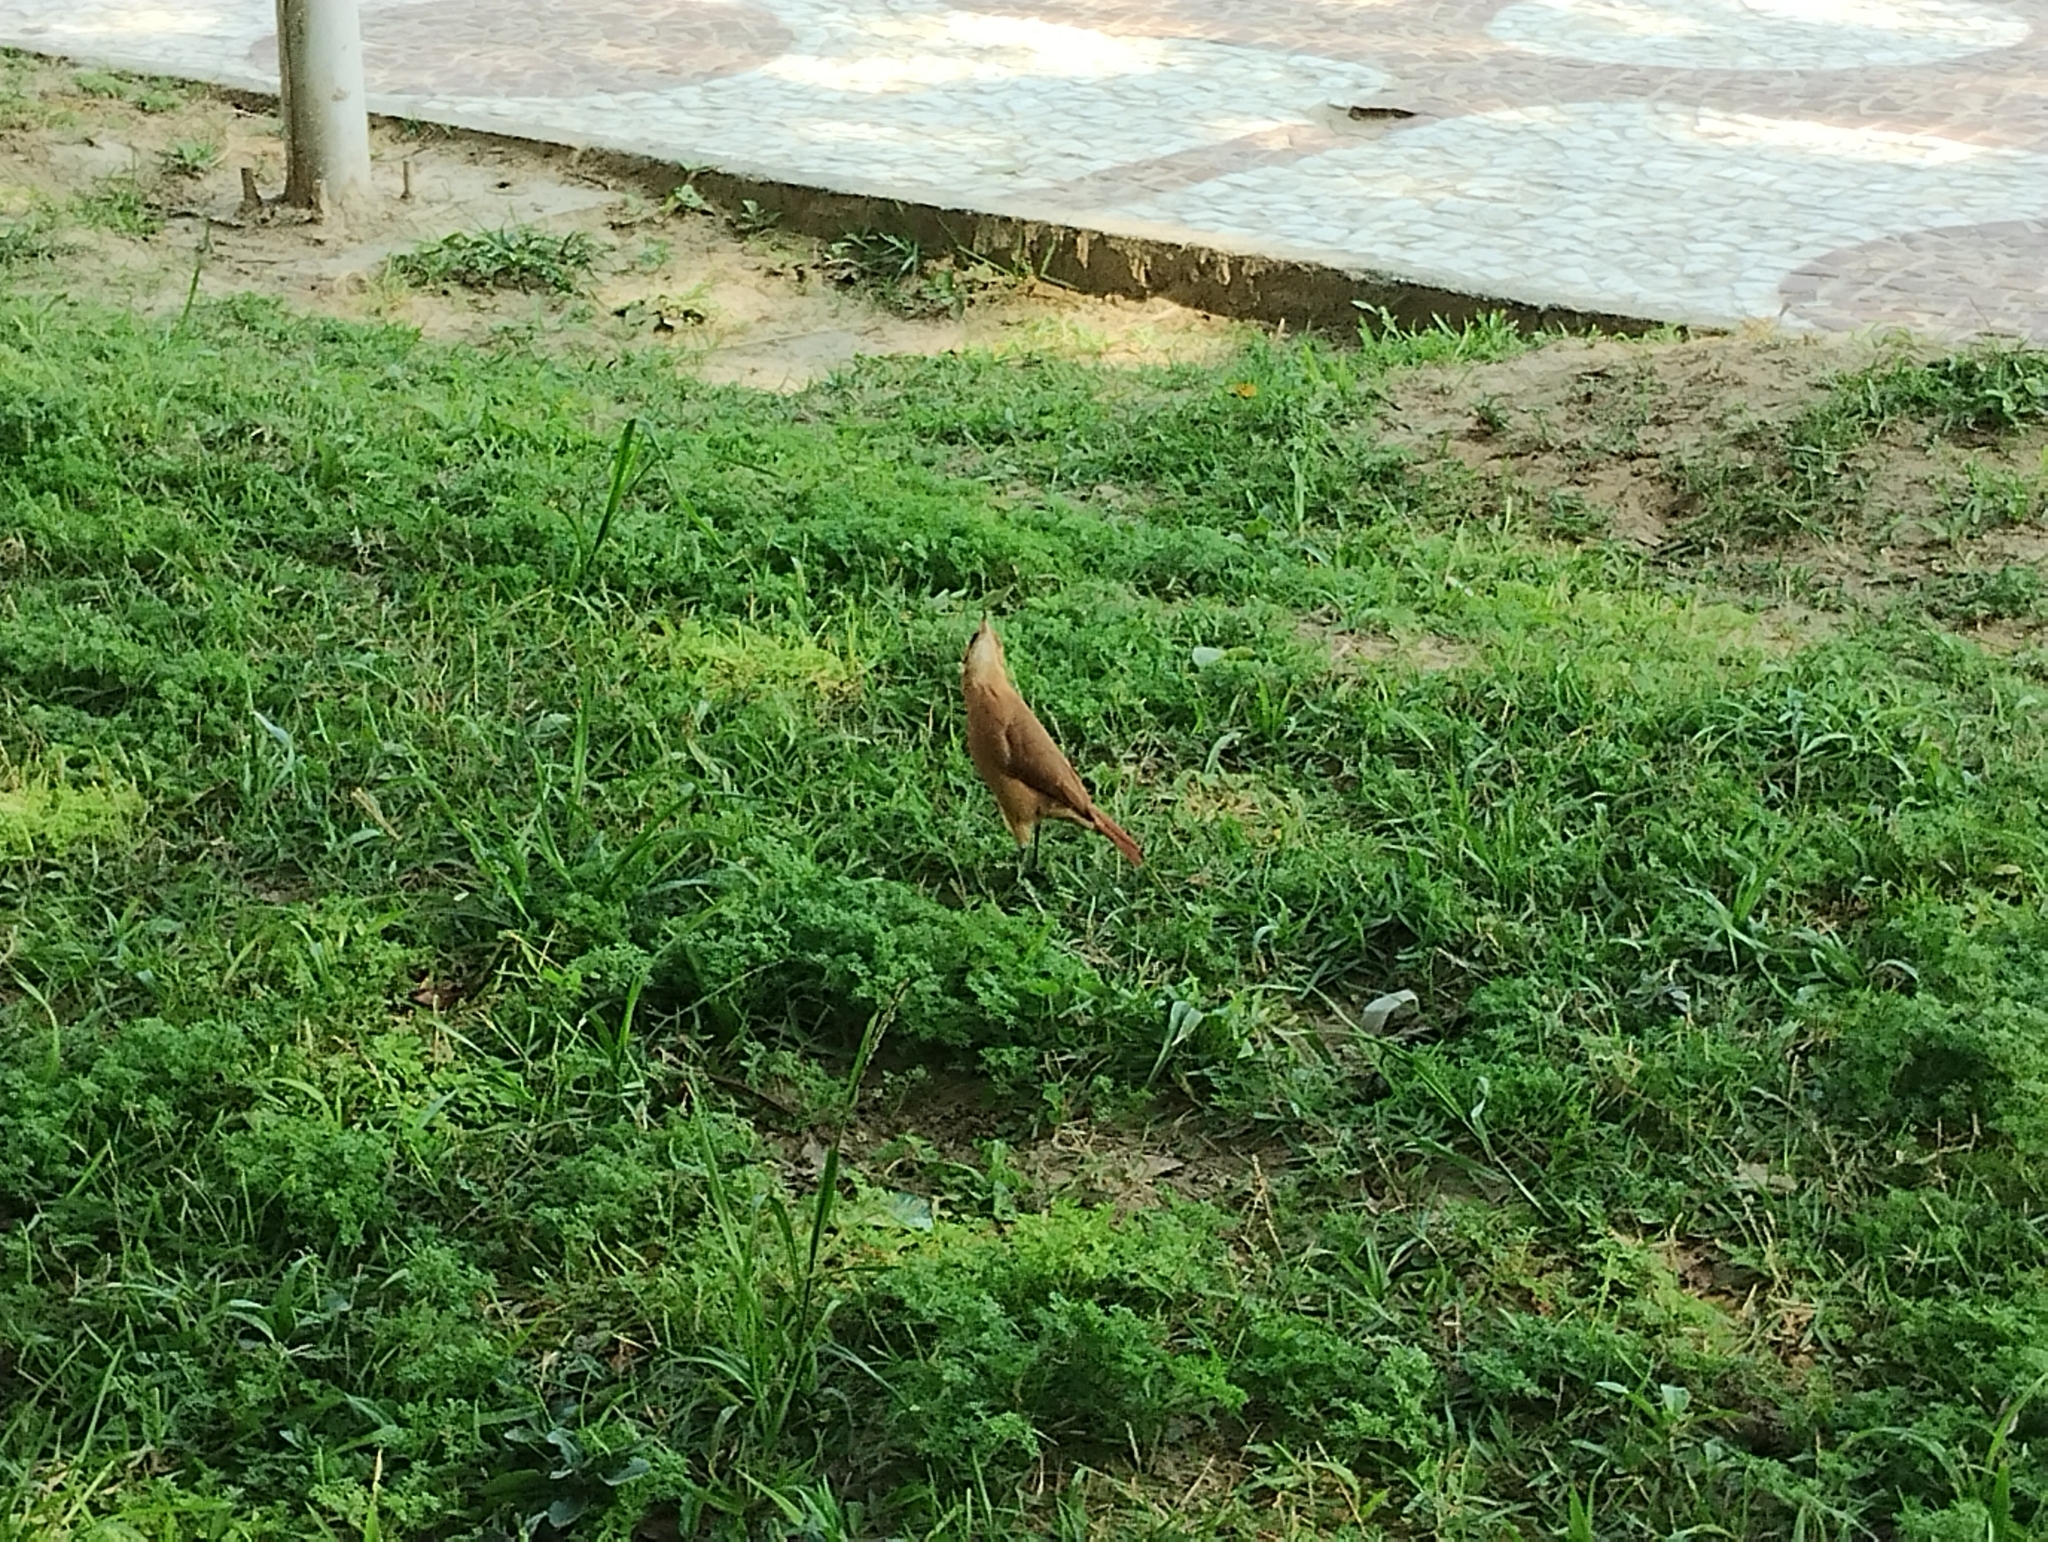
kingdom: Animalia
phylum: Chordata
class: Aves
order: Passeriformes
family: Furnariidae
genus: Furnarius
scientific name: Furnarius rufus
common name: Rufous hornero
